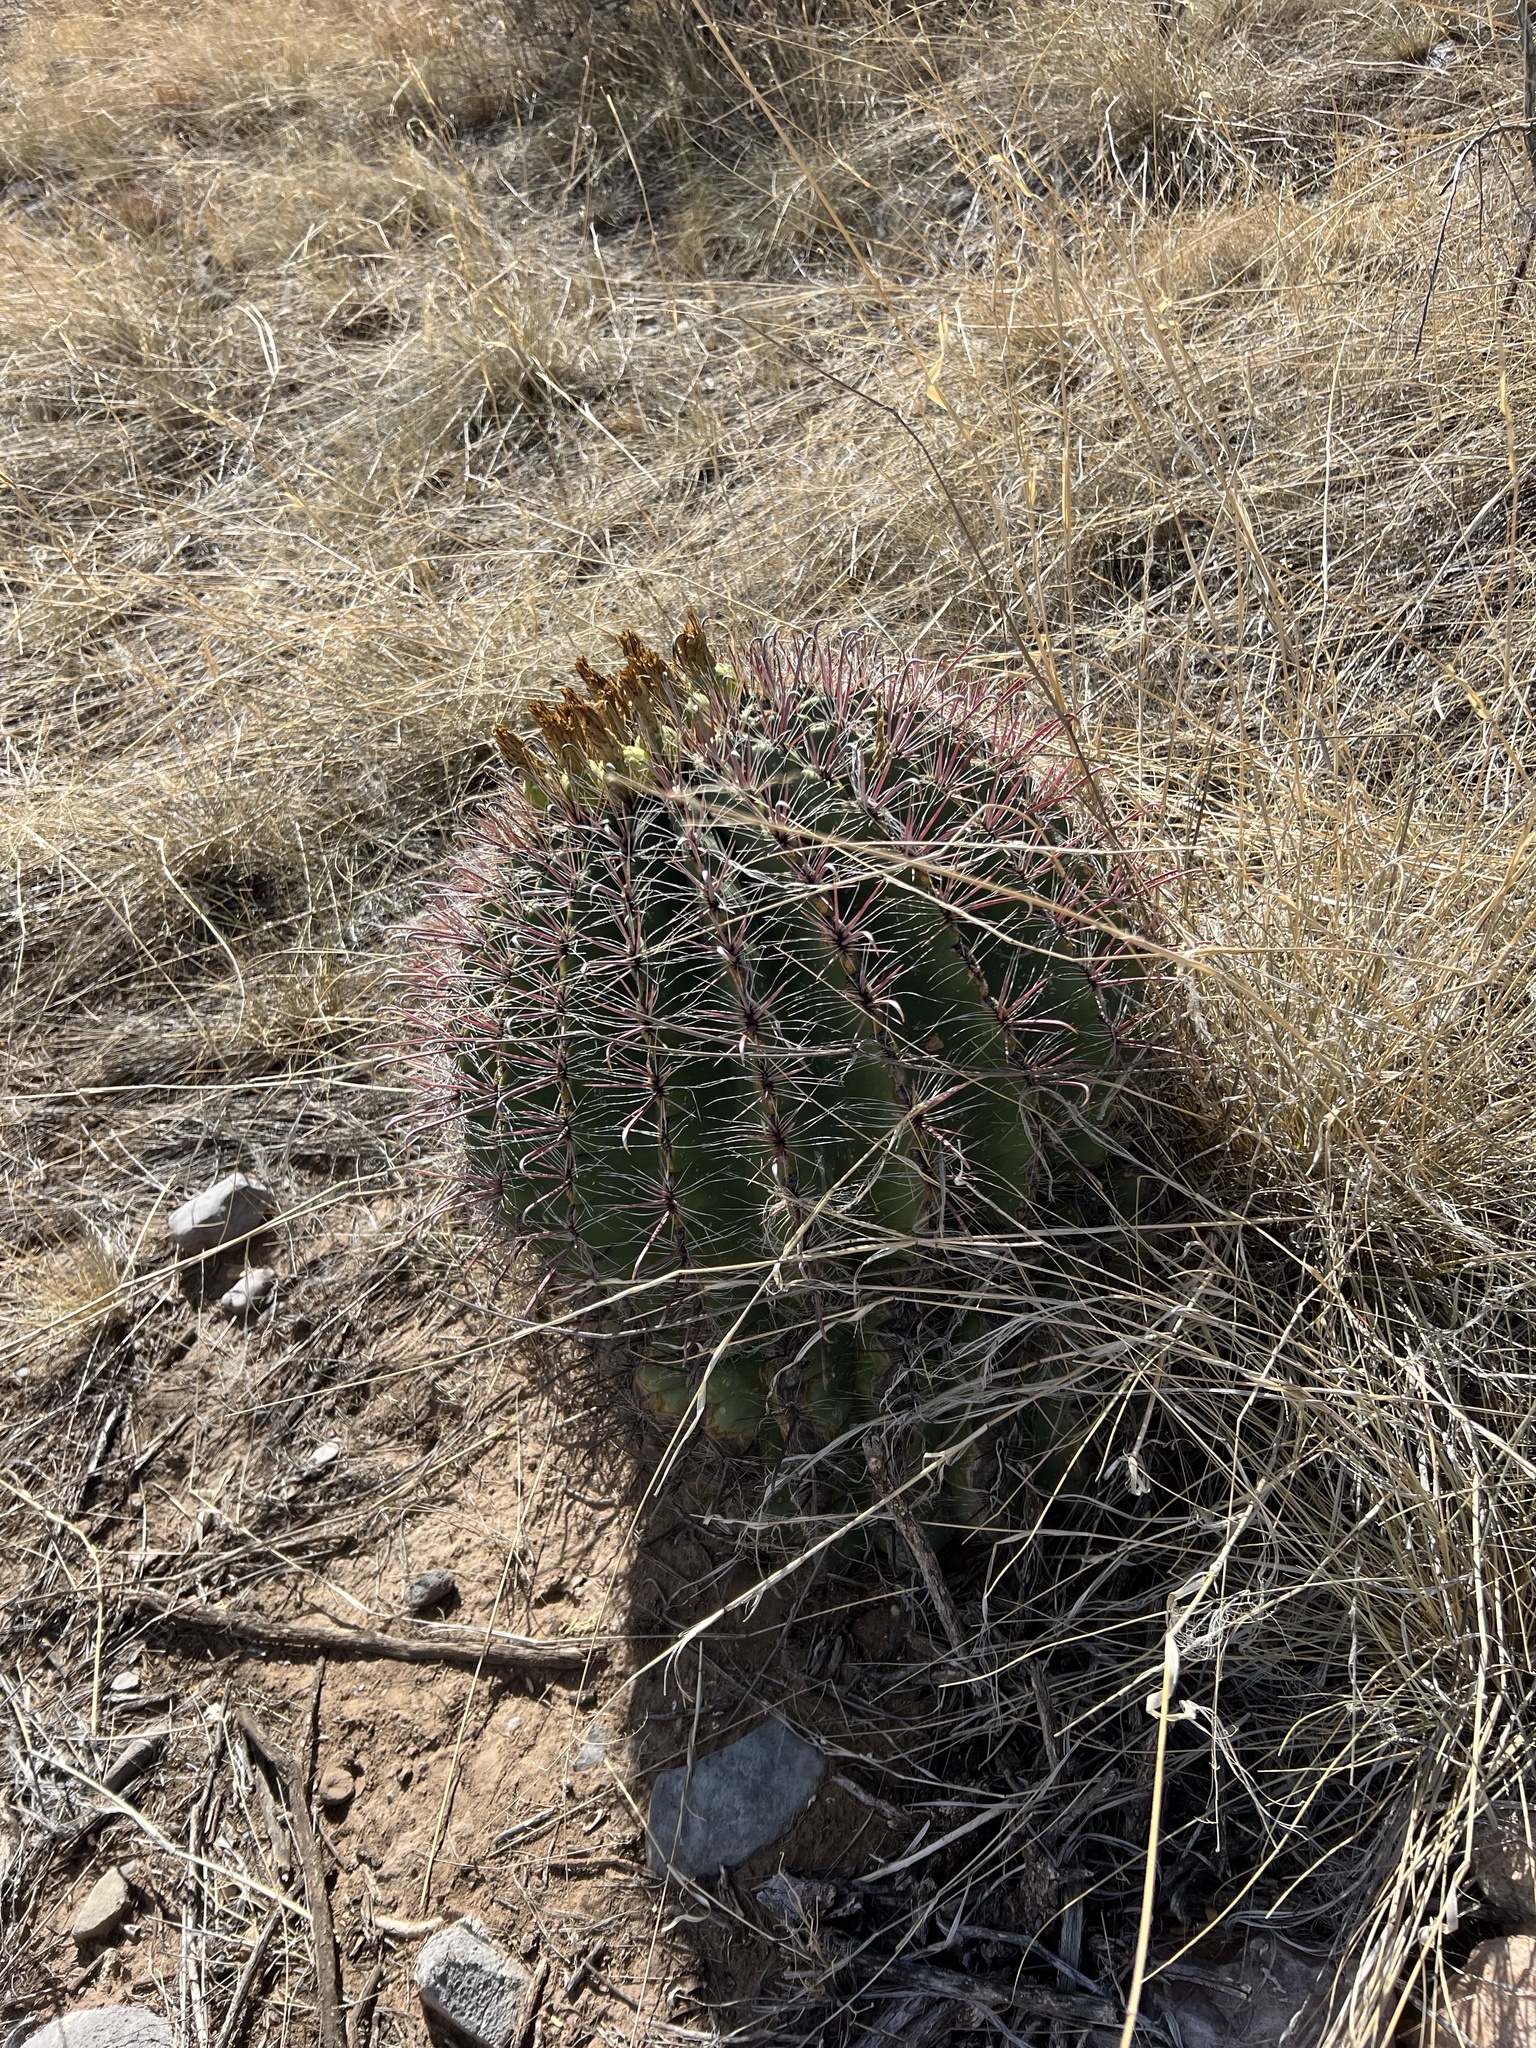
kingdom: Plantae
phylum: Tracheophyta
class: Magnoliopsida
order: Caryophyllales
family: Cactaceae
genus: Ferocactus
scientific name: Ferocactus wislizeni
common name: Candy barrel cactus
